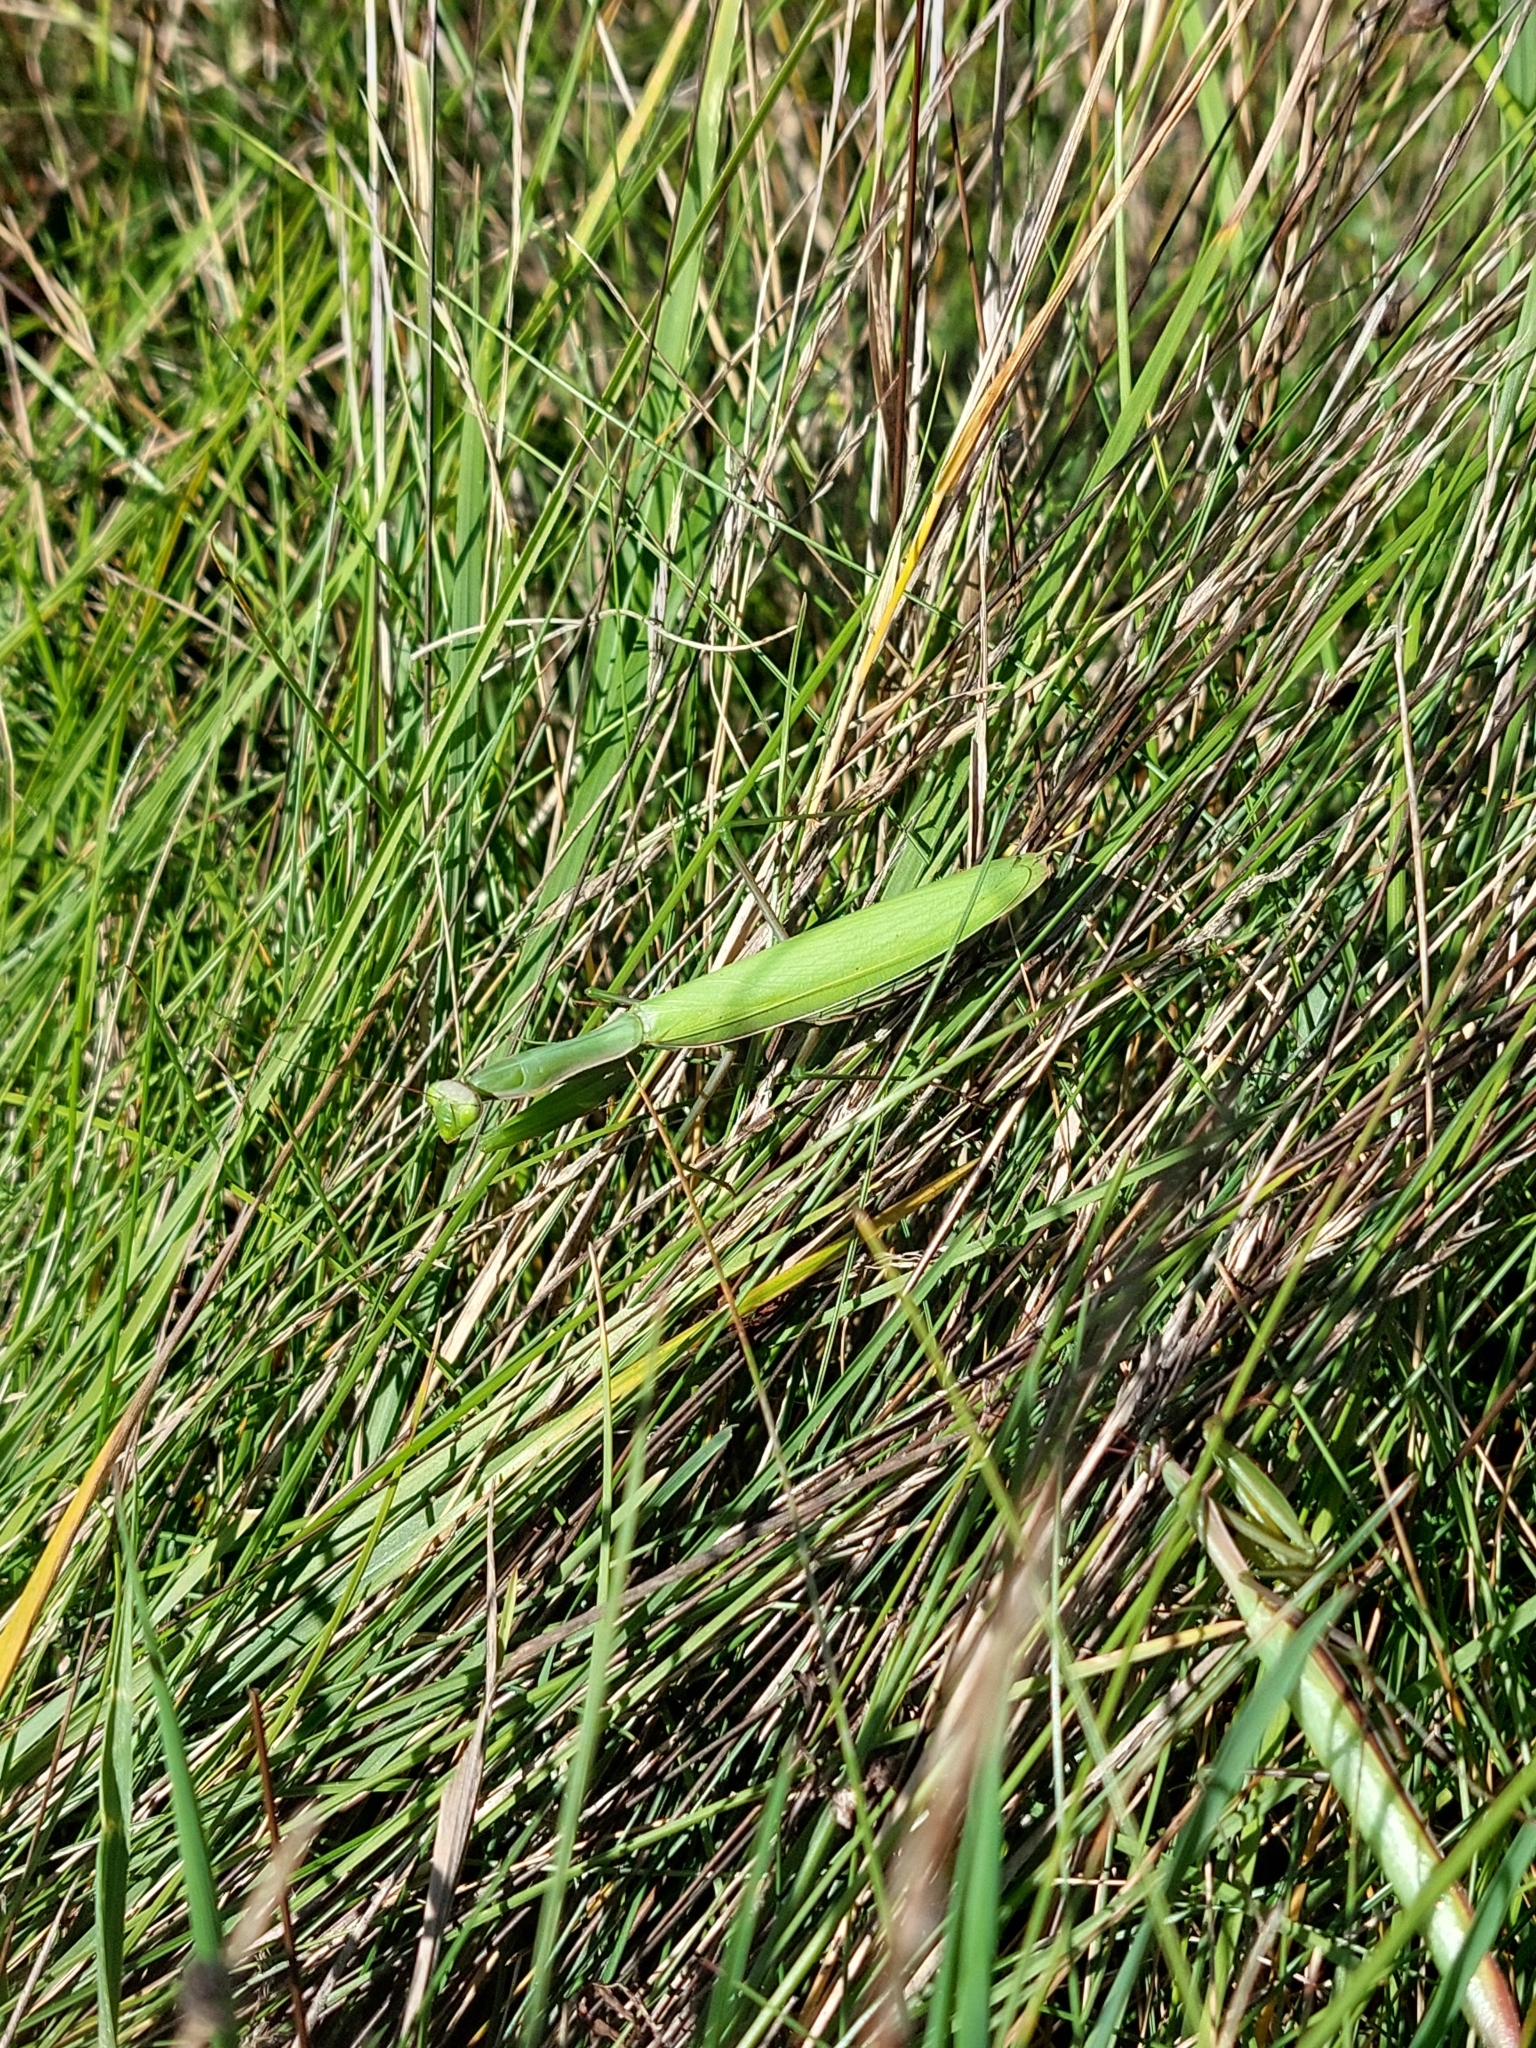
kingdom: Animalia
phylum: Arthropoda
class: Insecta
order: Mantodea
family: Mantidae
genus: Mantis
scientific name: Mantis religiosa
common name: Praying mantis
